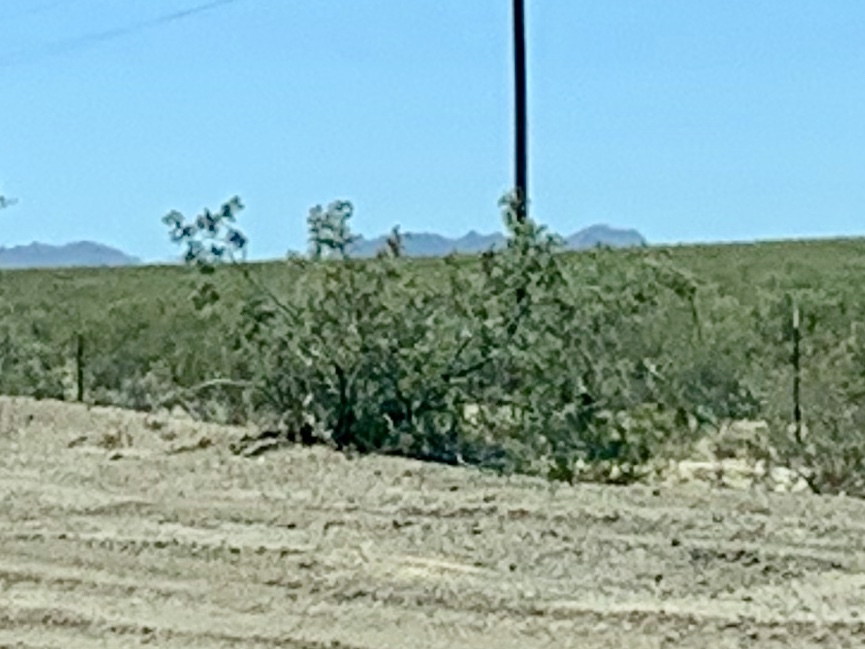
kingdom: Plantae
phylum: Tracheophyta
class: Magnoliopsida
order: Zygophyllales
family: Zygophyllaceae
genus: Larrea
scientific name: Larrea tridentata
